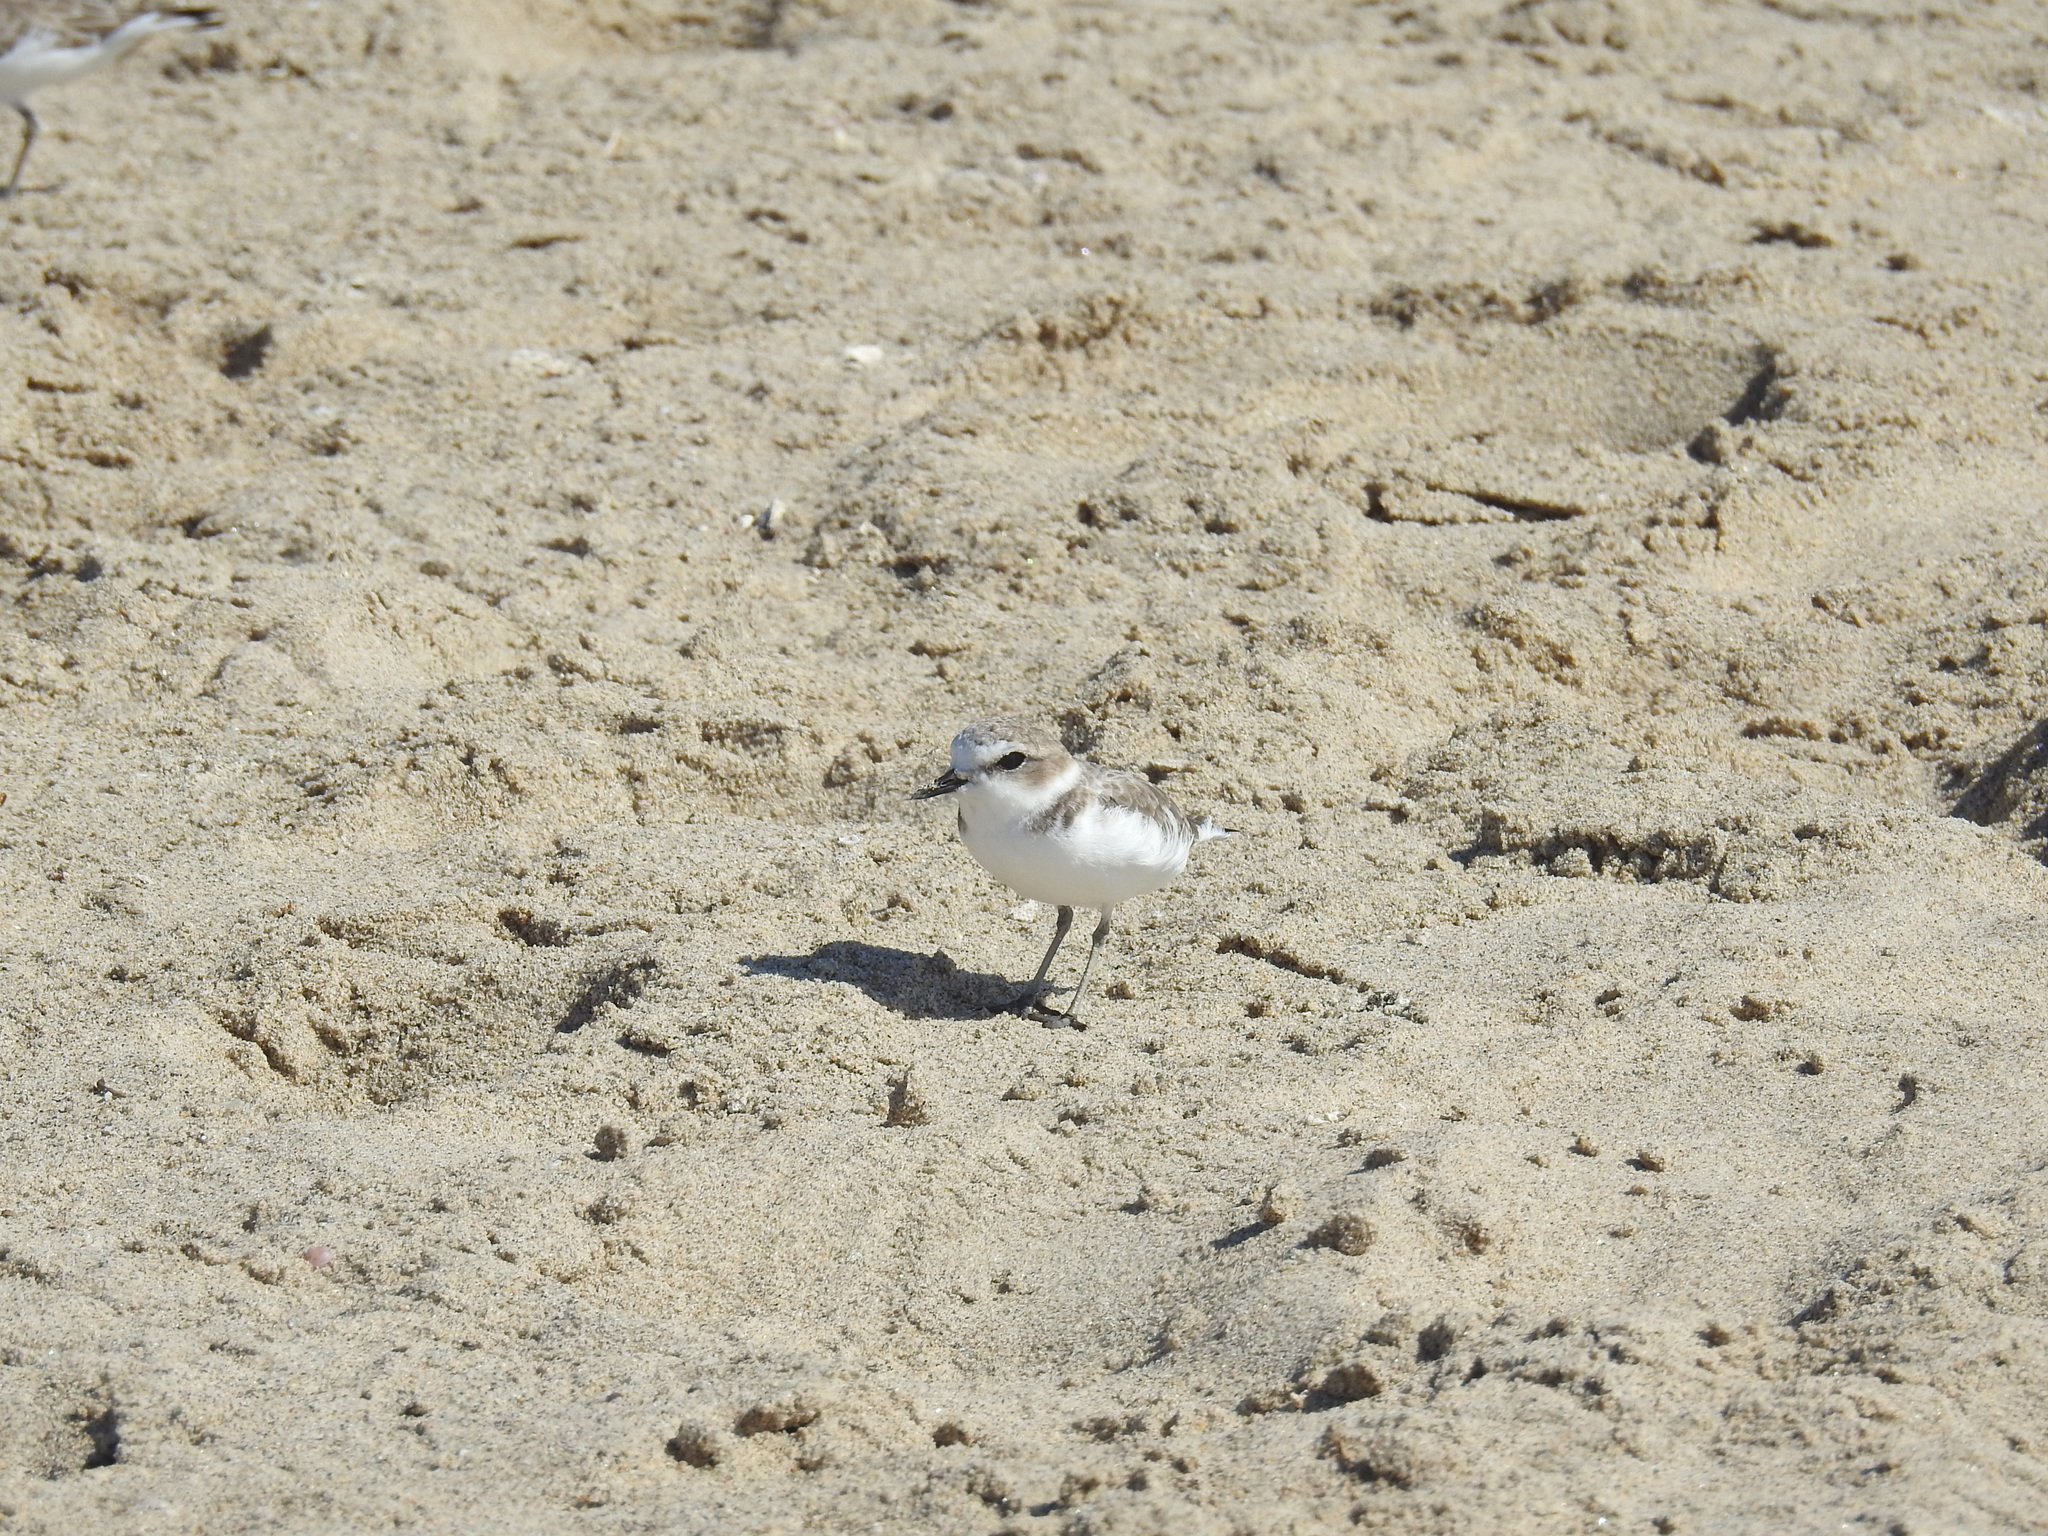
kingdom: Animalia
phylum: Chordata
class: Aves
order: Charadriiformes
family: Charadriidae
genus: Anarhynchus
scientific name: Anarhynchus
